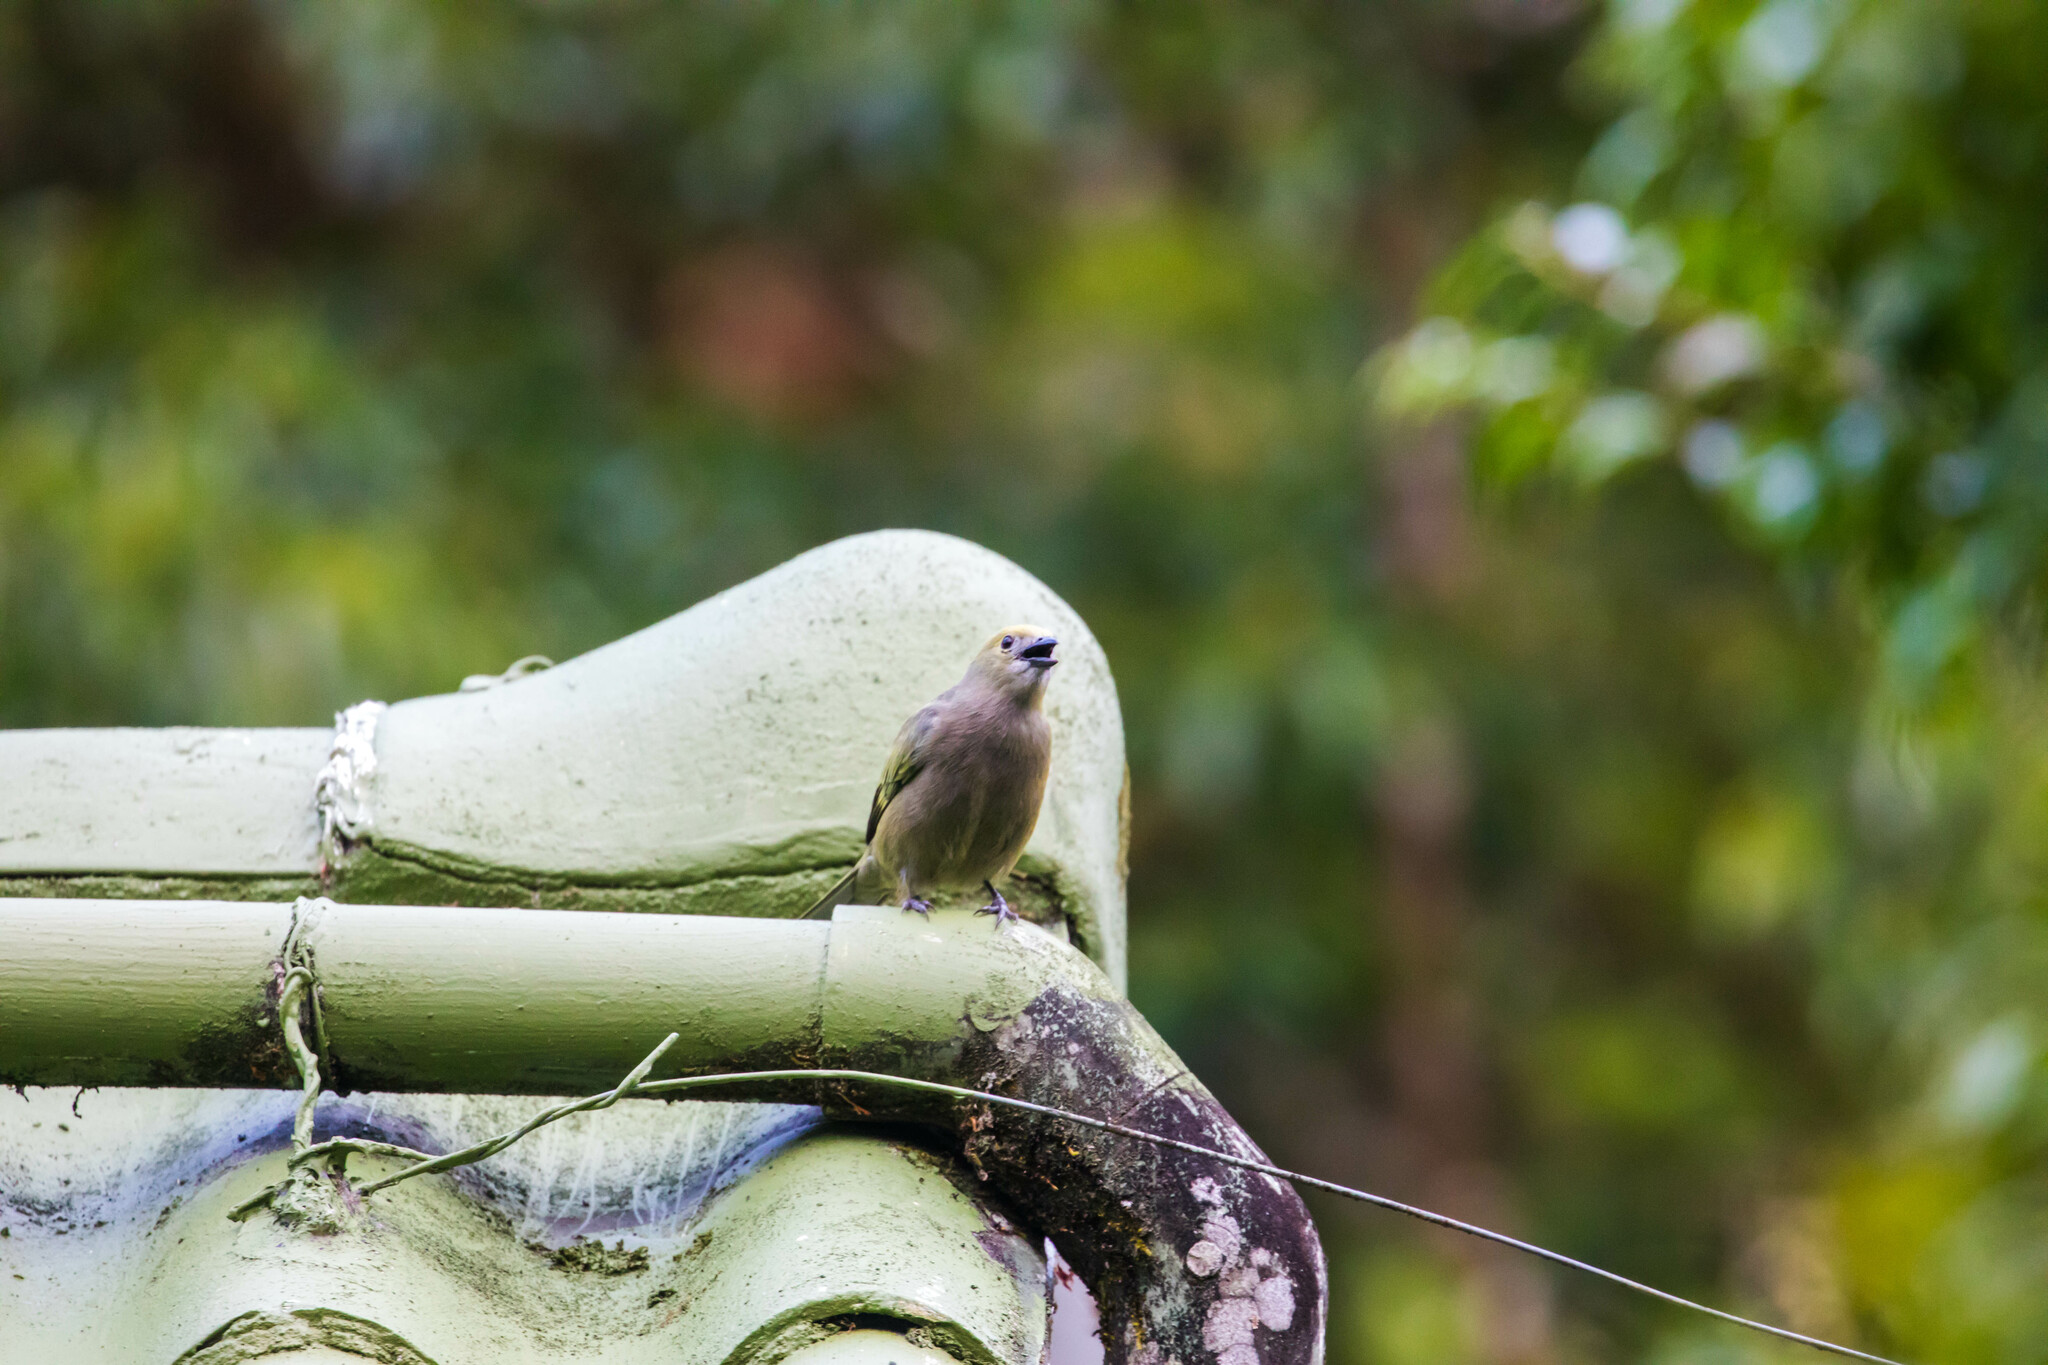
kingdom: Animalia
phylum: Chordata
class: Aves
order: Passeriformes
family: Thraupidae
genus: Thraupis
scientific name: Thraupis palmarum
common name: Palm tanager
